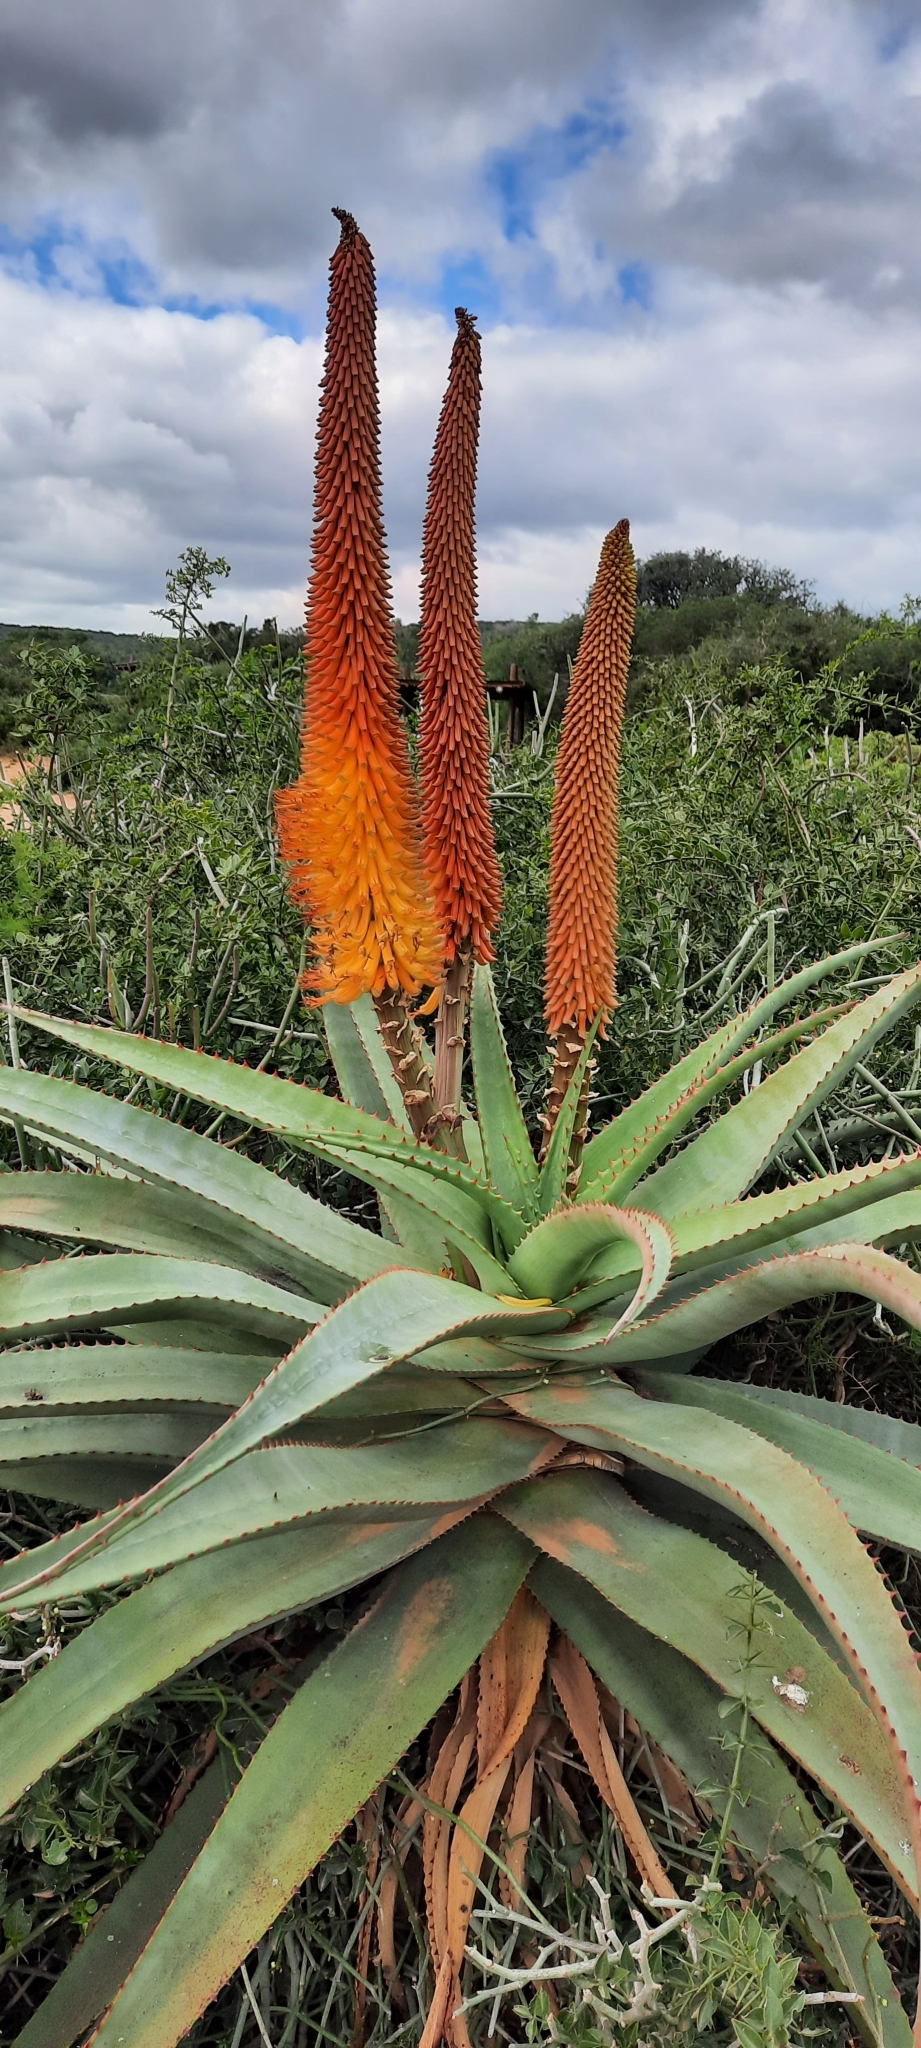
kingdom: Plantae
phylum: Tracheophyta
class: Liliopsida
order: Asparagales
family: Asphodelaceae
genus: Aloe
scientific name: Aloe africana
